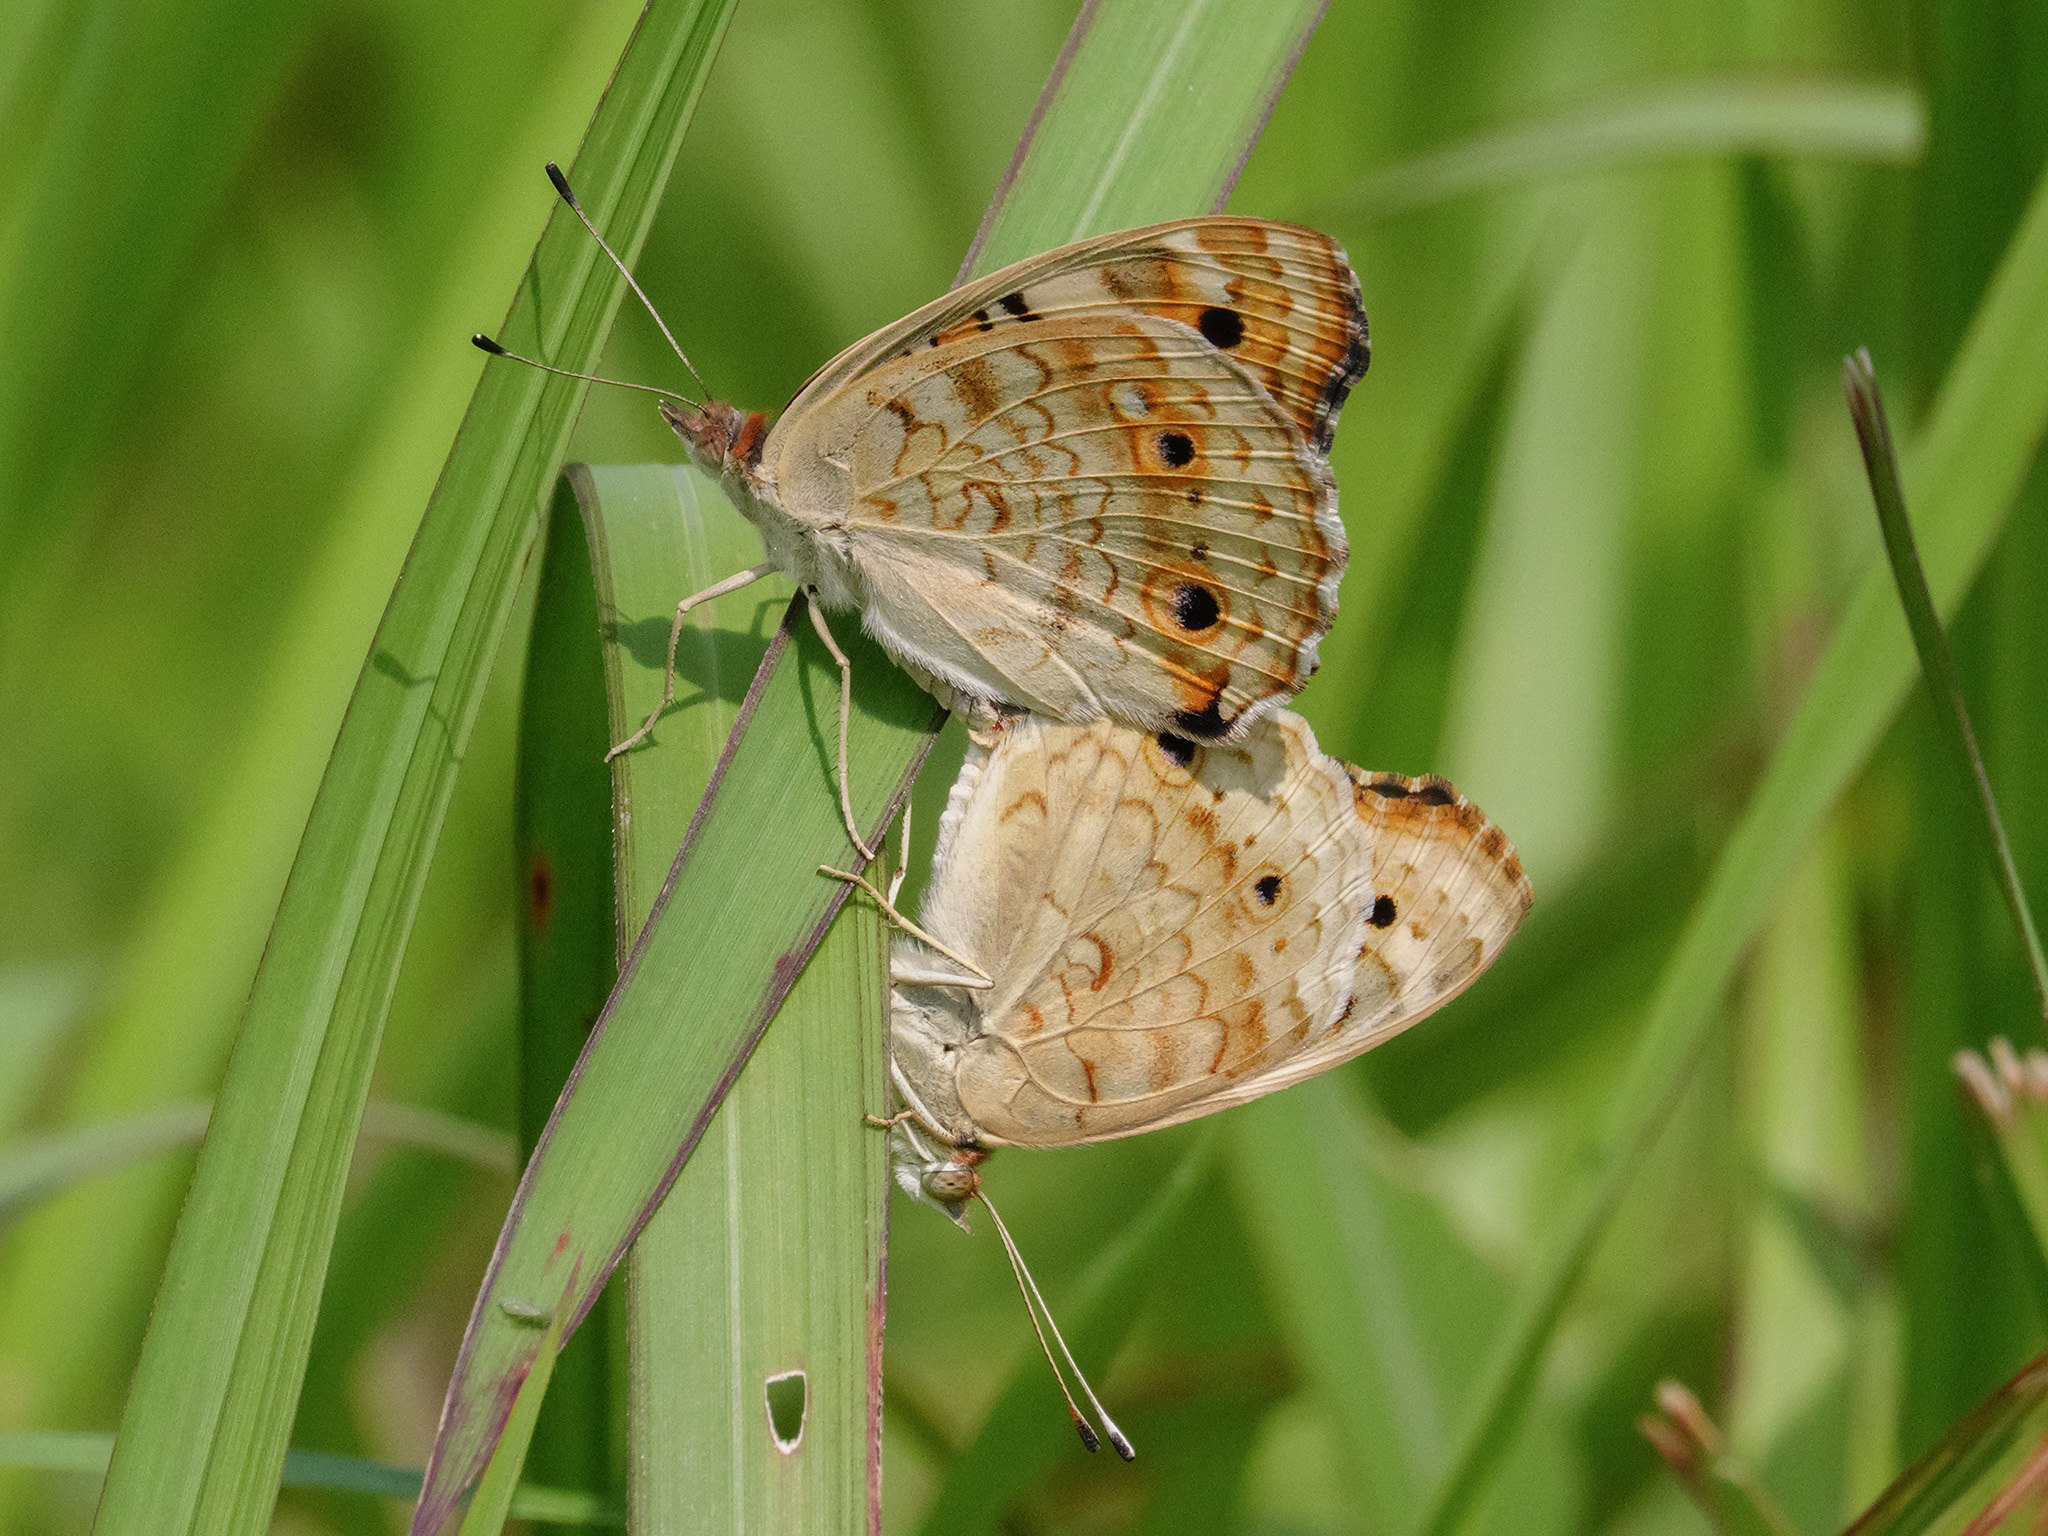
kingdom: Animalia
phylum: Arthropoda
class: Insecta
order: Lepidoptera
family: Nymphalidae
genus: Junonia
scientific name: Junonia orithya
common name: Blue pansy
